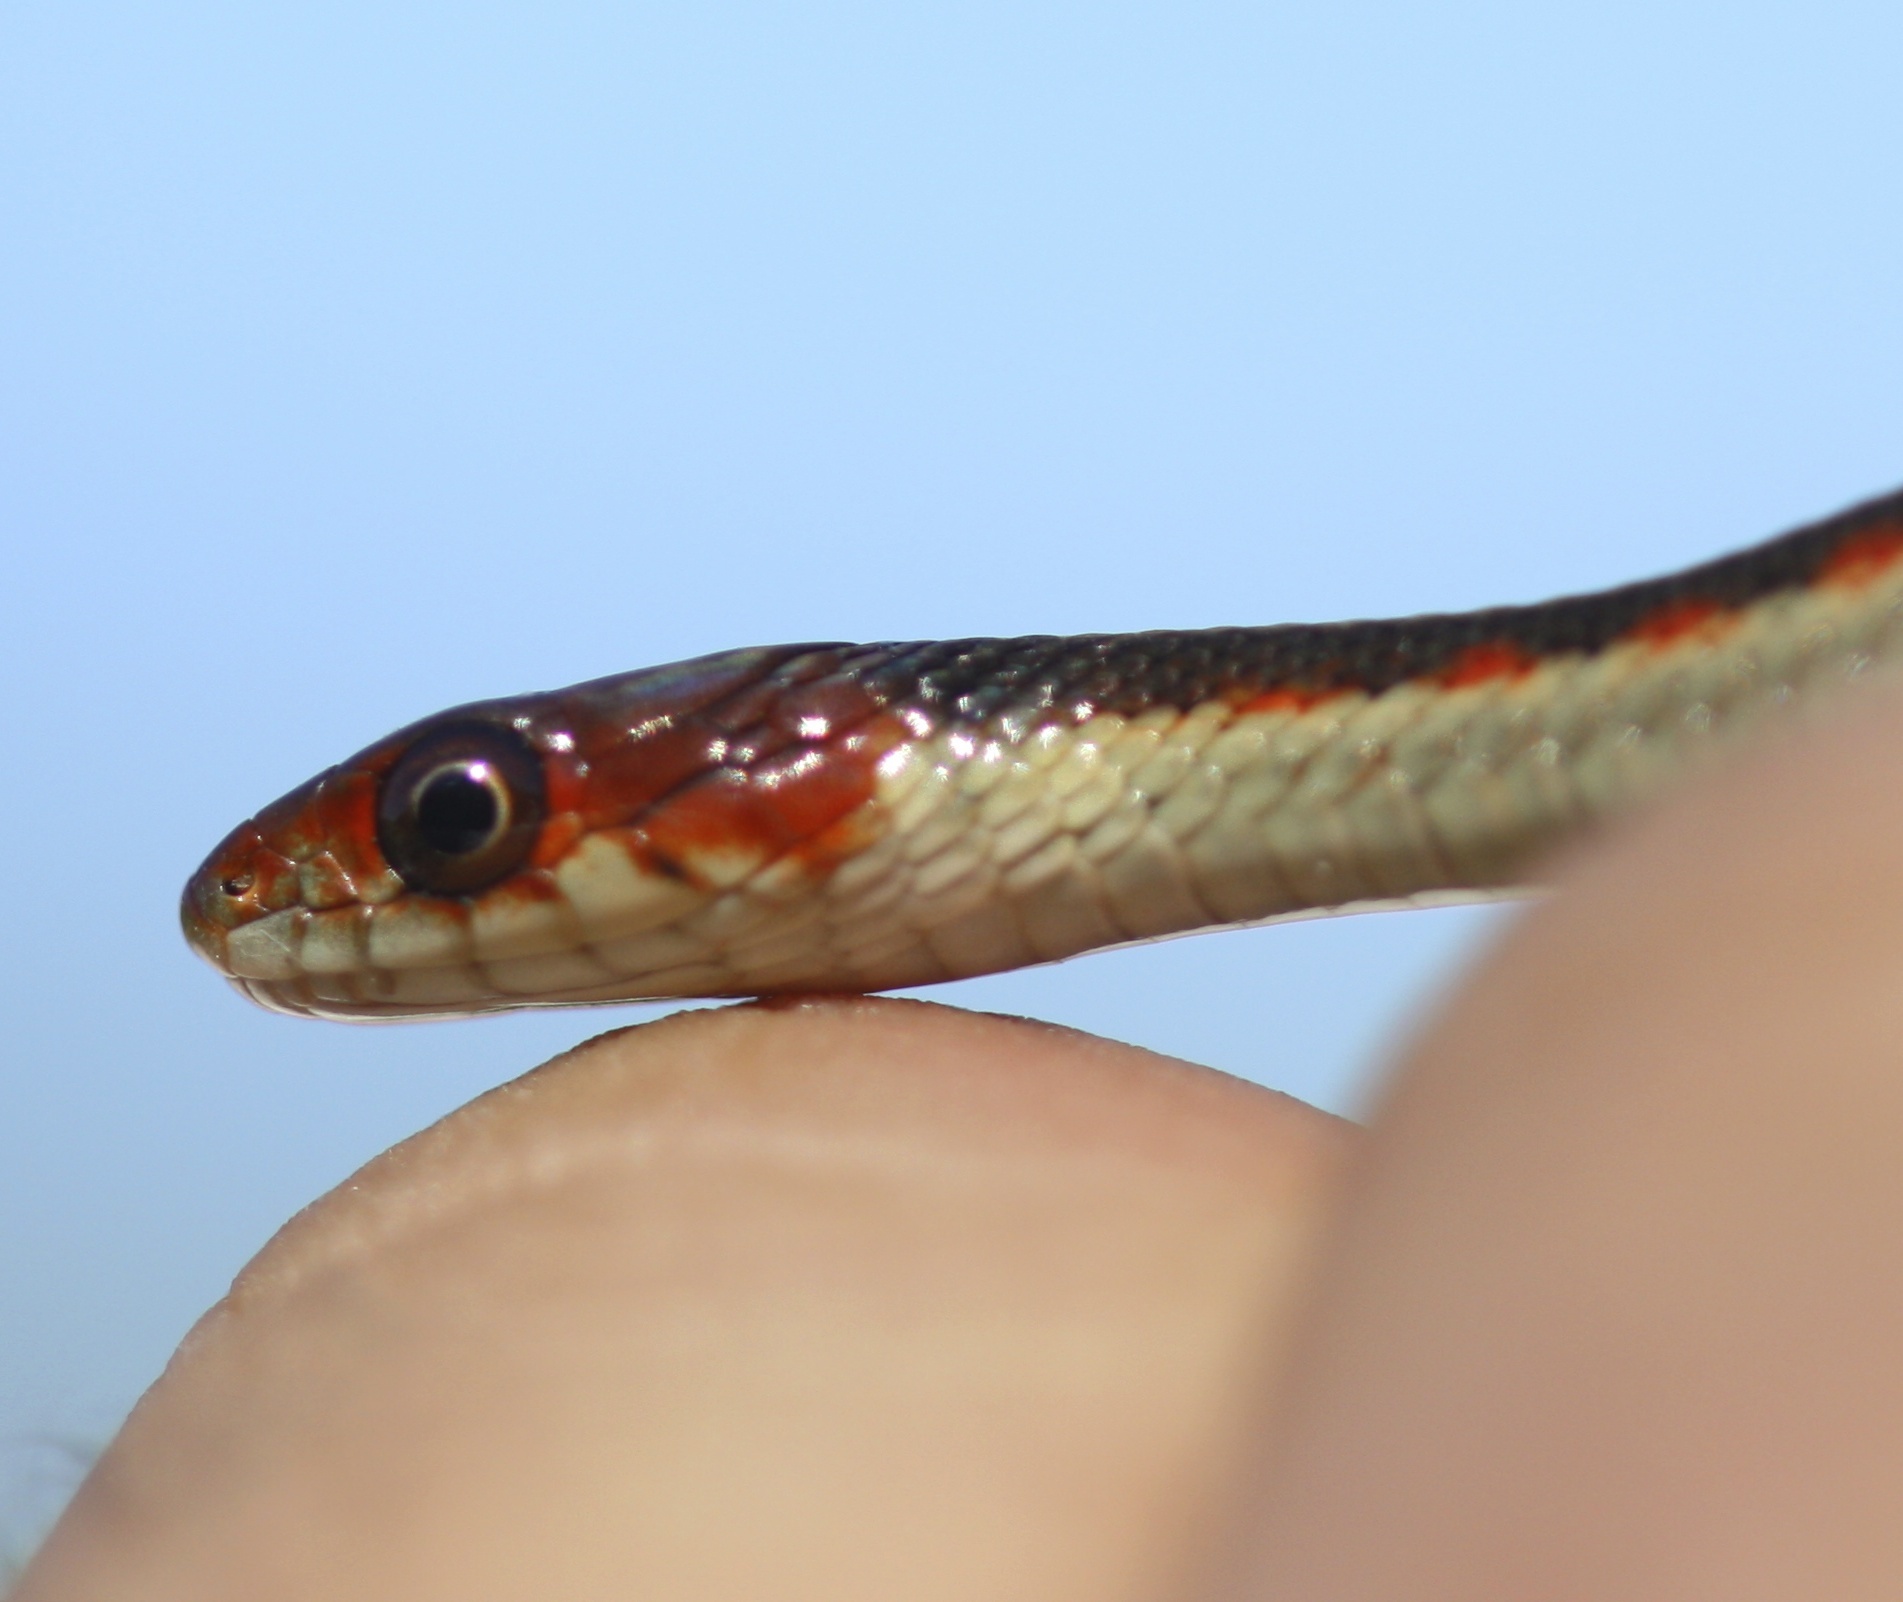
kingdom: Animalia
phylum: Chordata
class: Squamata
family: Colubridae
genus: Thamnophis
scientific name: Thamnophis sirtalis
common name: Common garter snake
